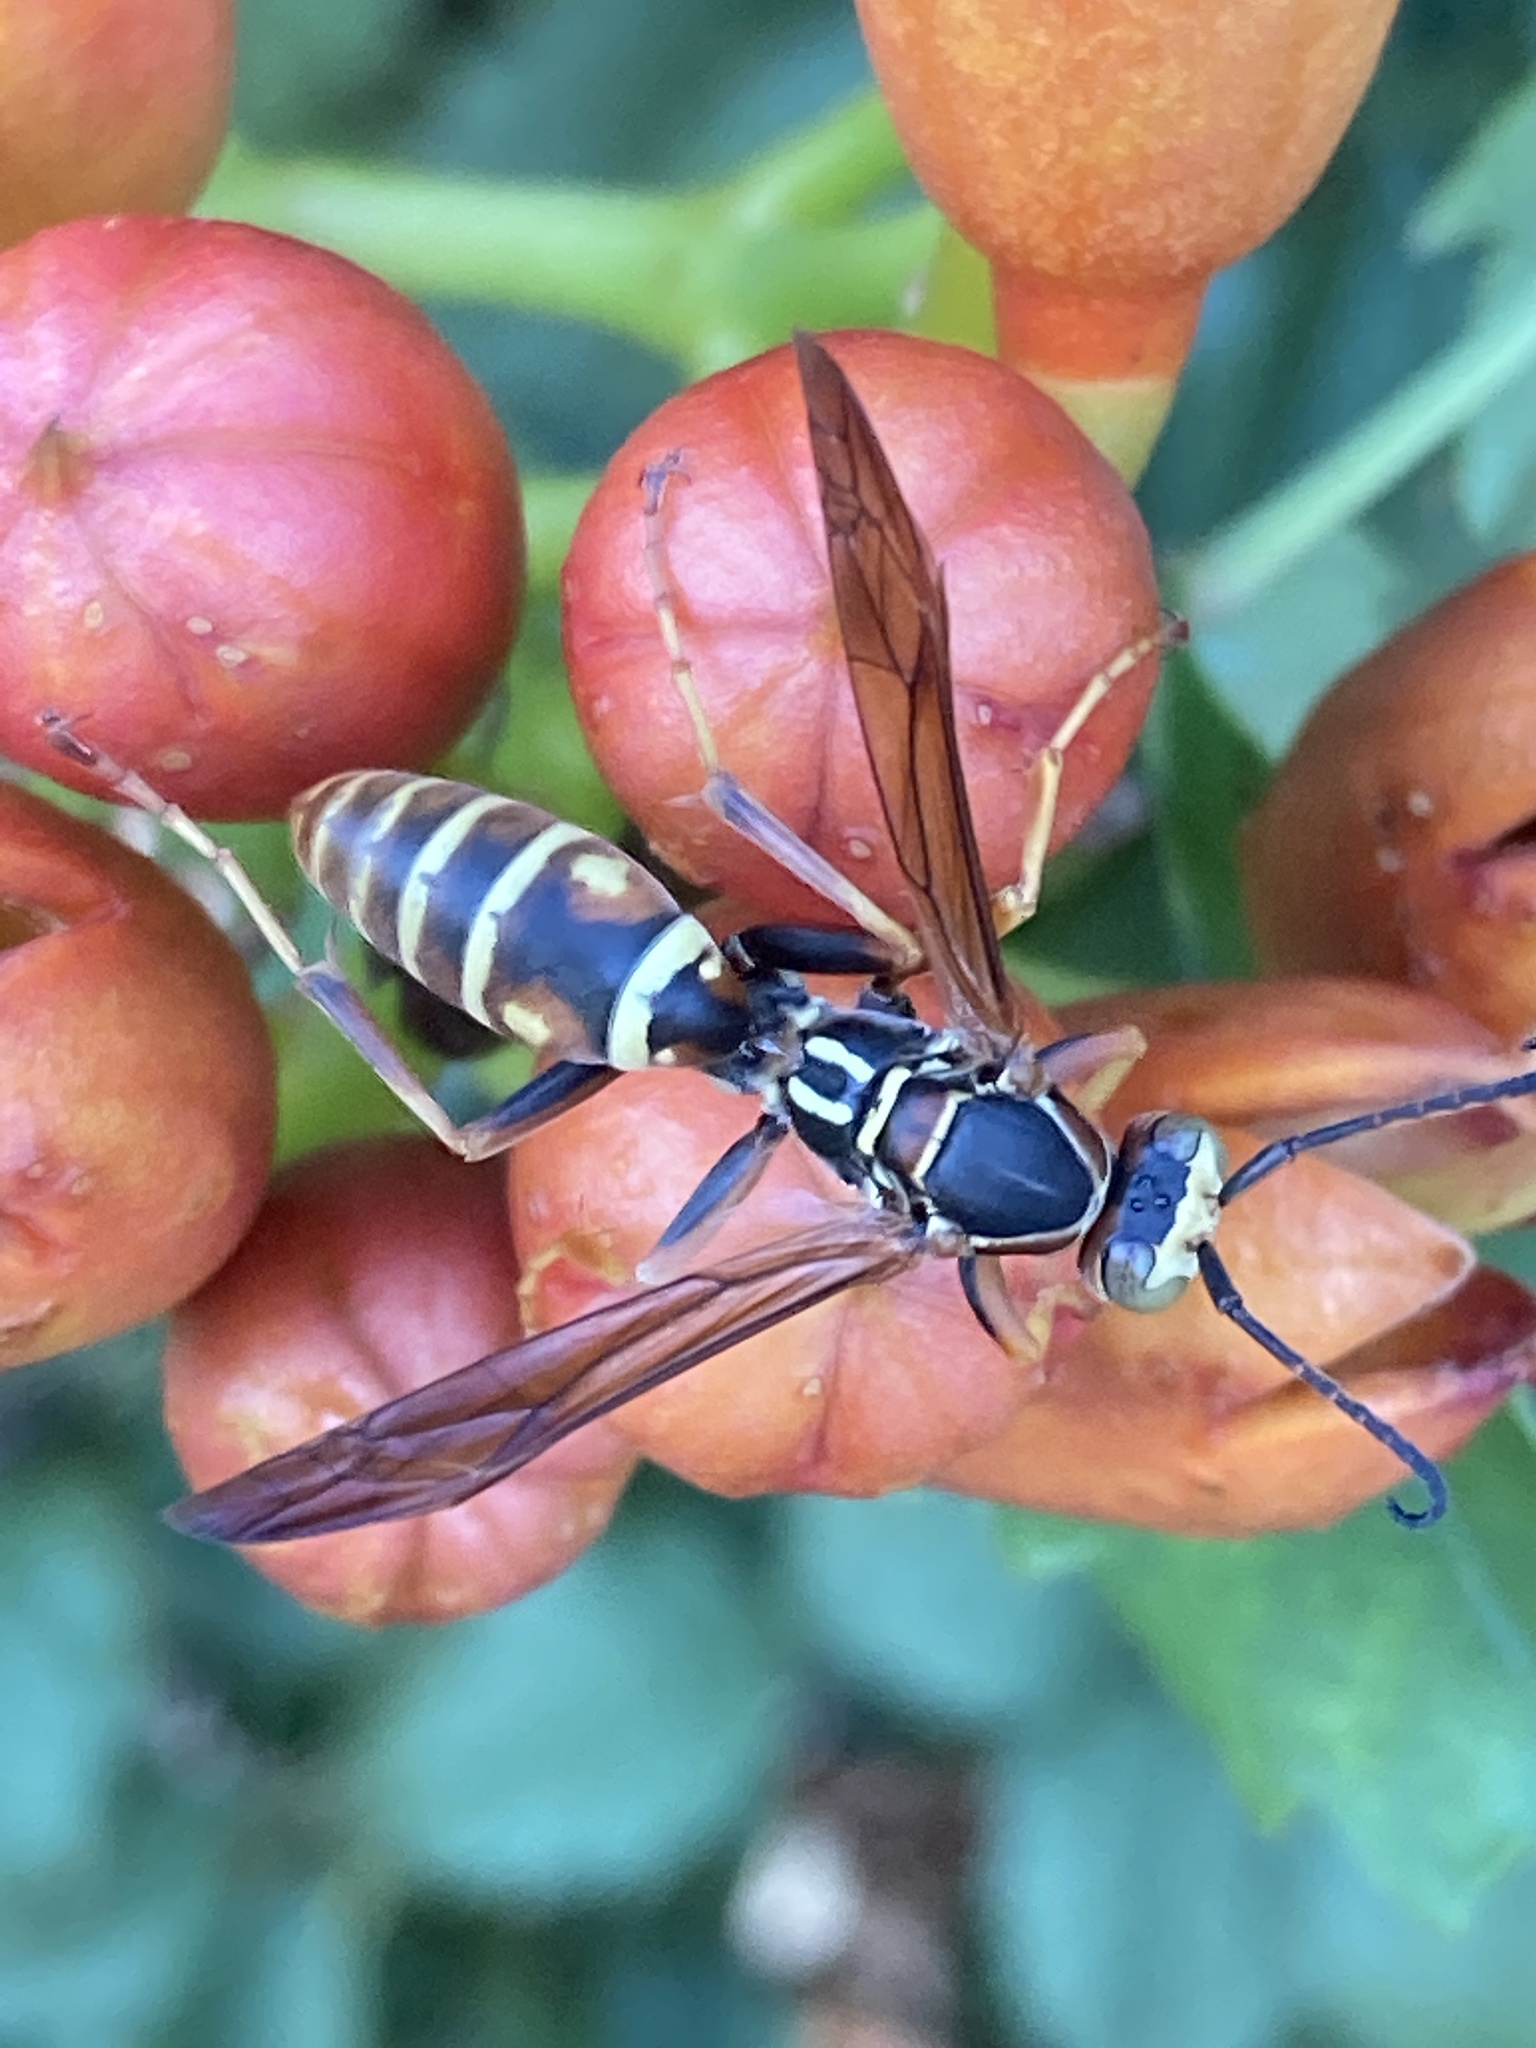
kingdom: Animalia
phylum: Arthropoda
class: Insecta
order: Hymenoptera
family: Eumenidae
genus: Polistes
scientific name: Polistes fuscatus
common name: Dark paper wasp
